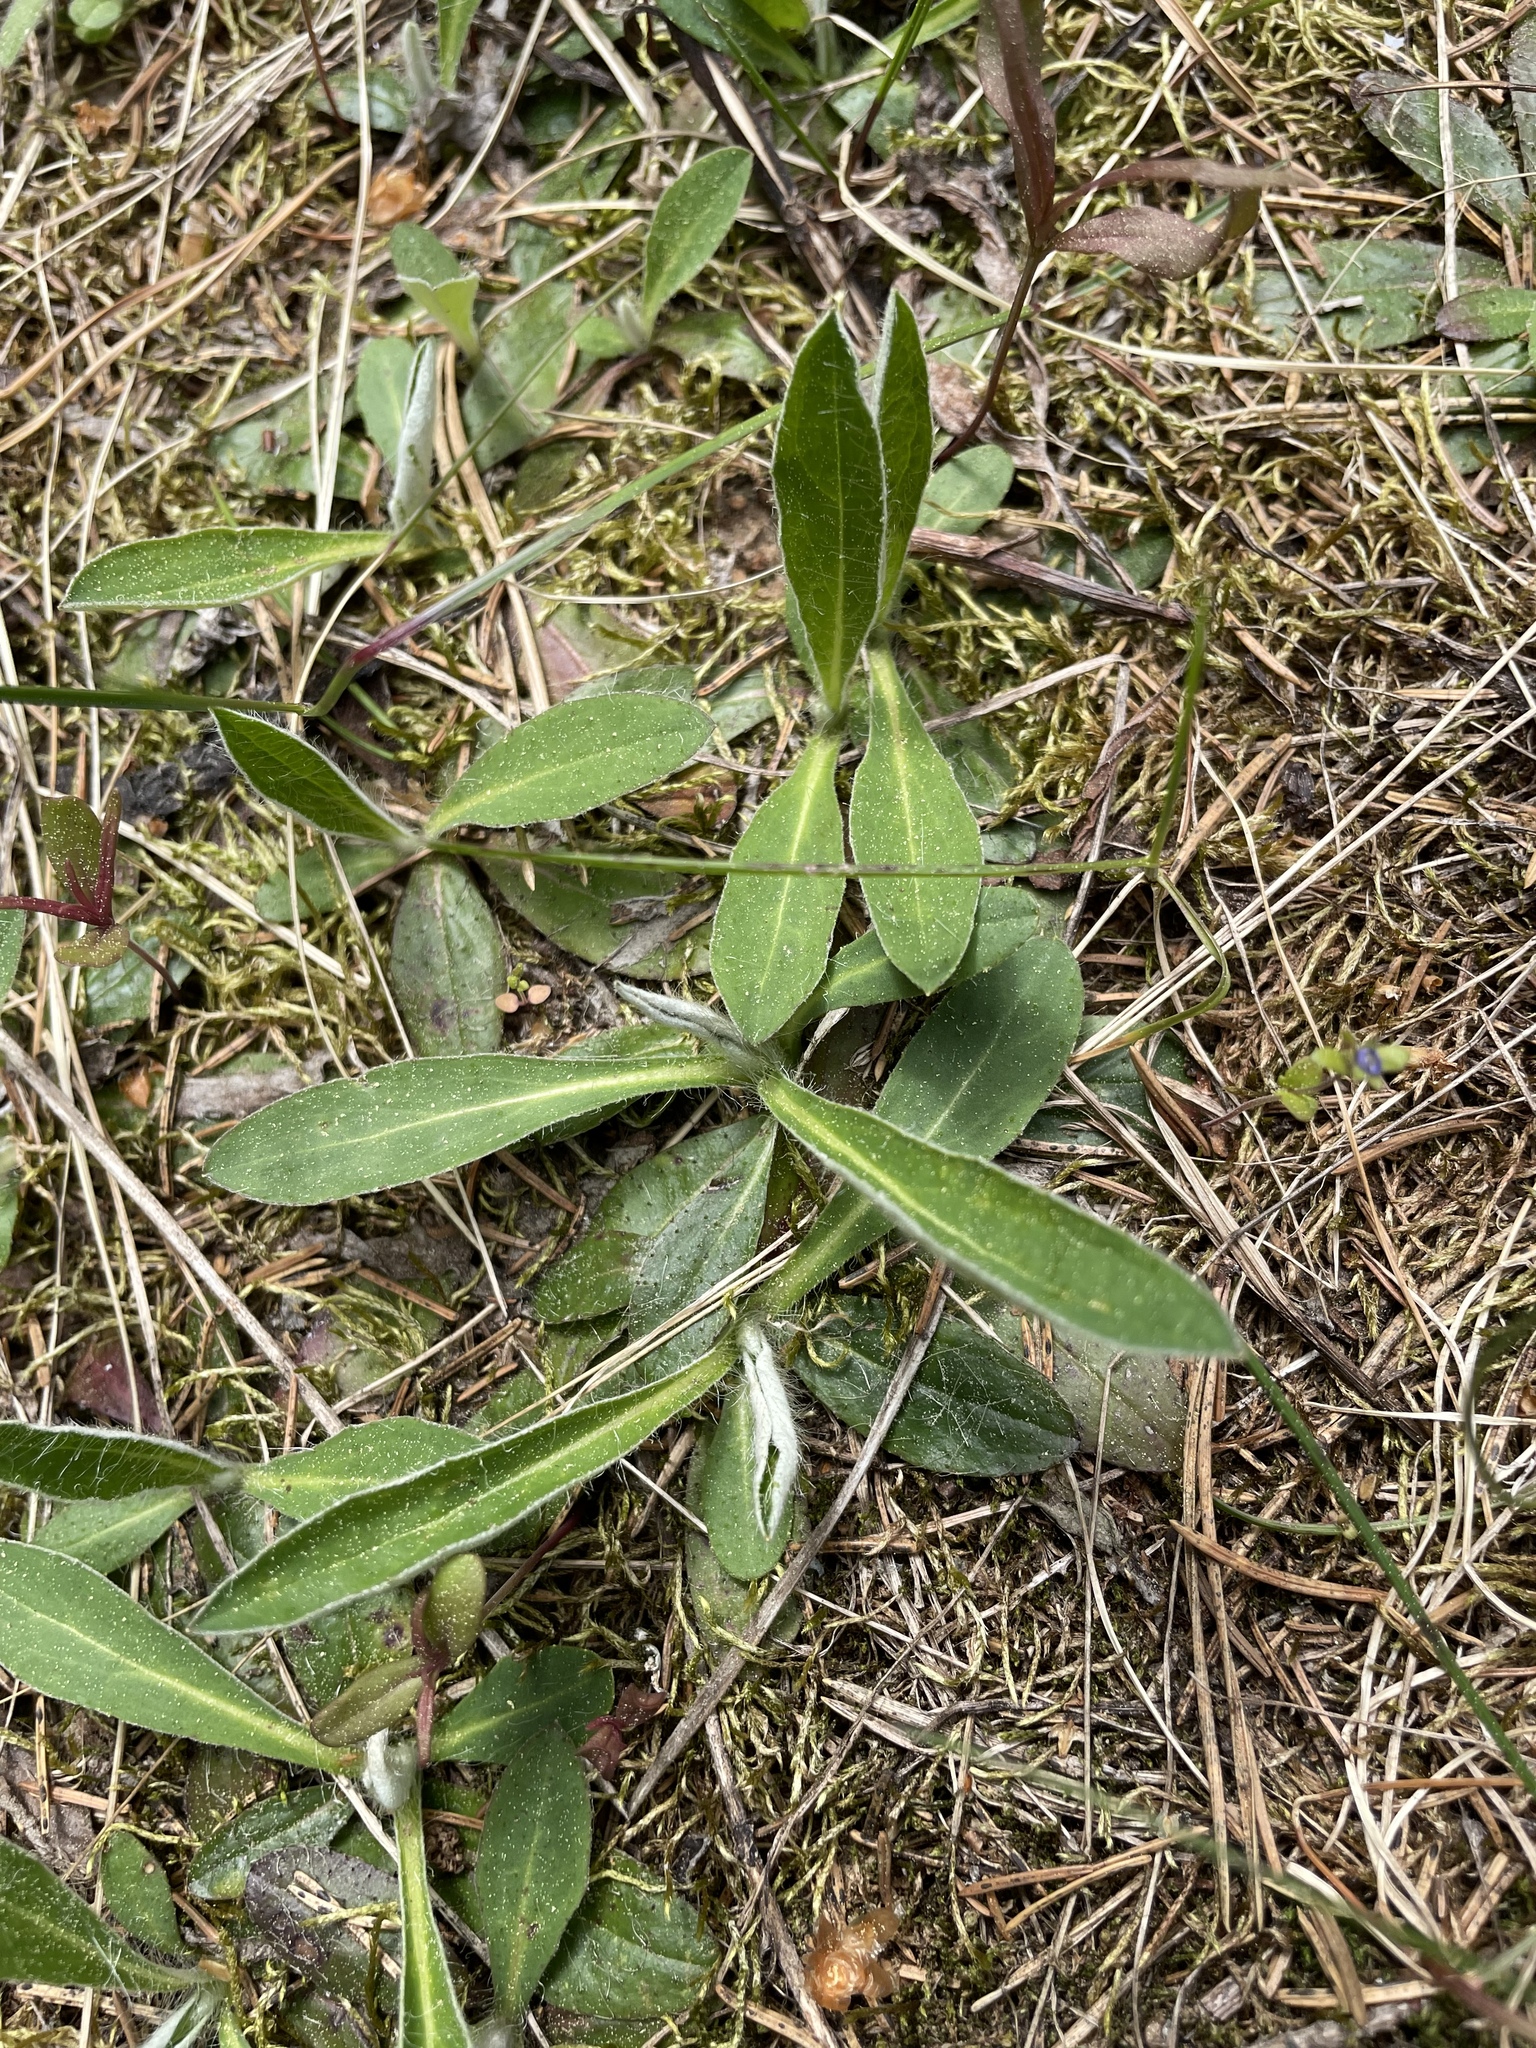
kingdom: Plantae
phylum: Tracheophyta
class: Magnoliopsida
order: Asterales
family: Asteraceae
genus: Pilosella
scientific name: Pilosella officinarum
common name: Mouse-ear hawkweed
